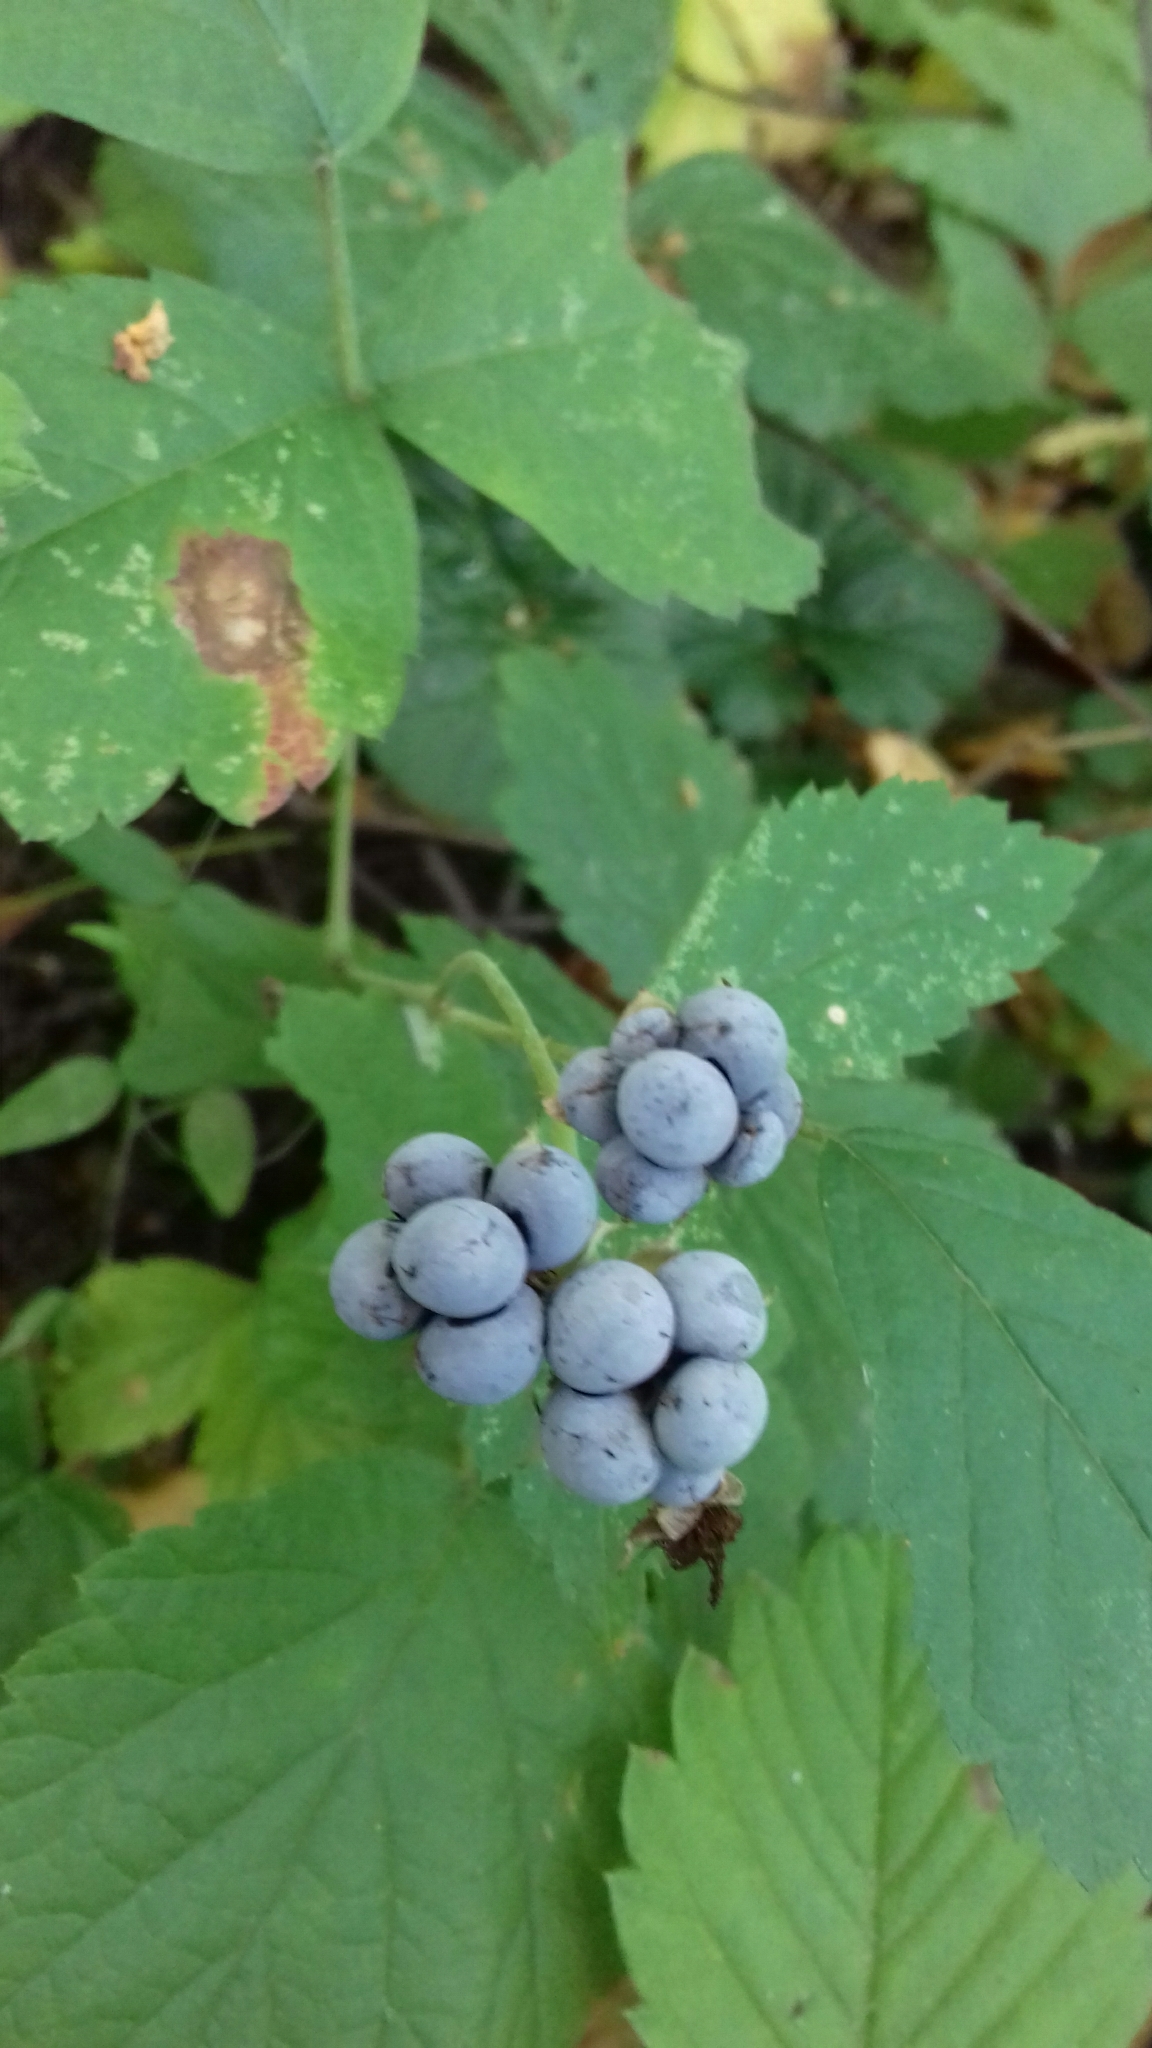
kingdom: Plantae
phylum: Tracheophyta
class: Magnoliopsida
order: Rosales
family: Rosaceae
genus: Rubus
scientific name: Rubus caesius
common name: Dewberry
